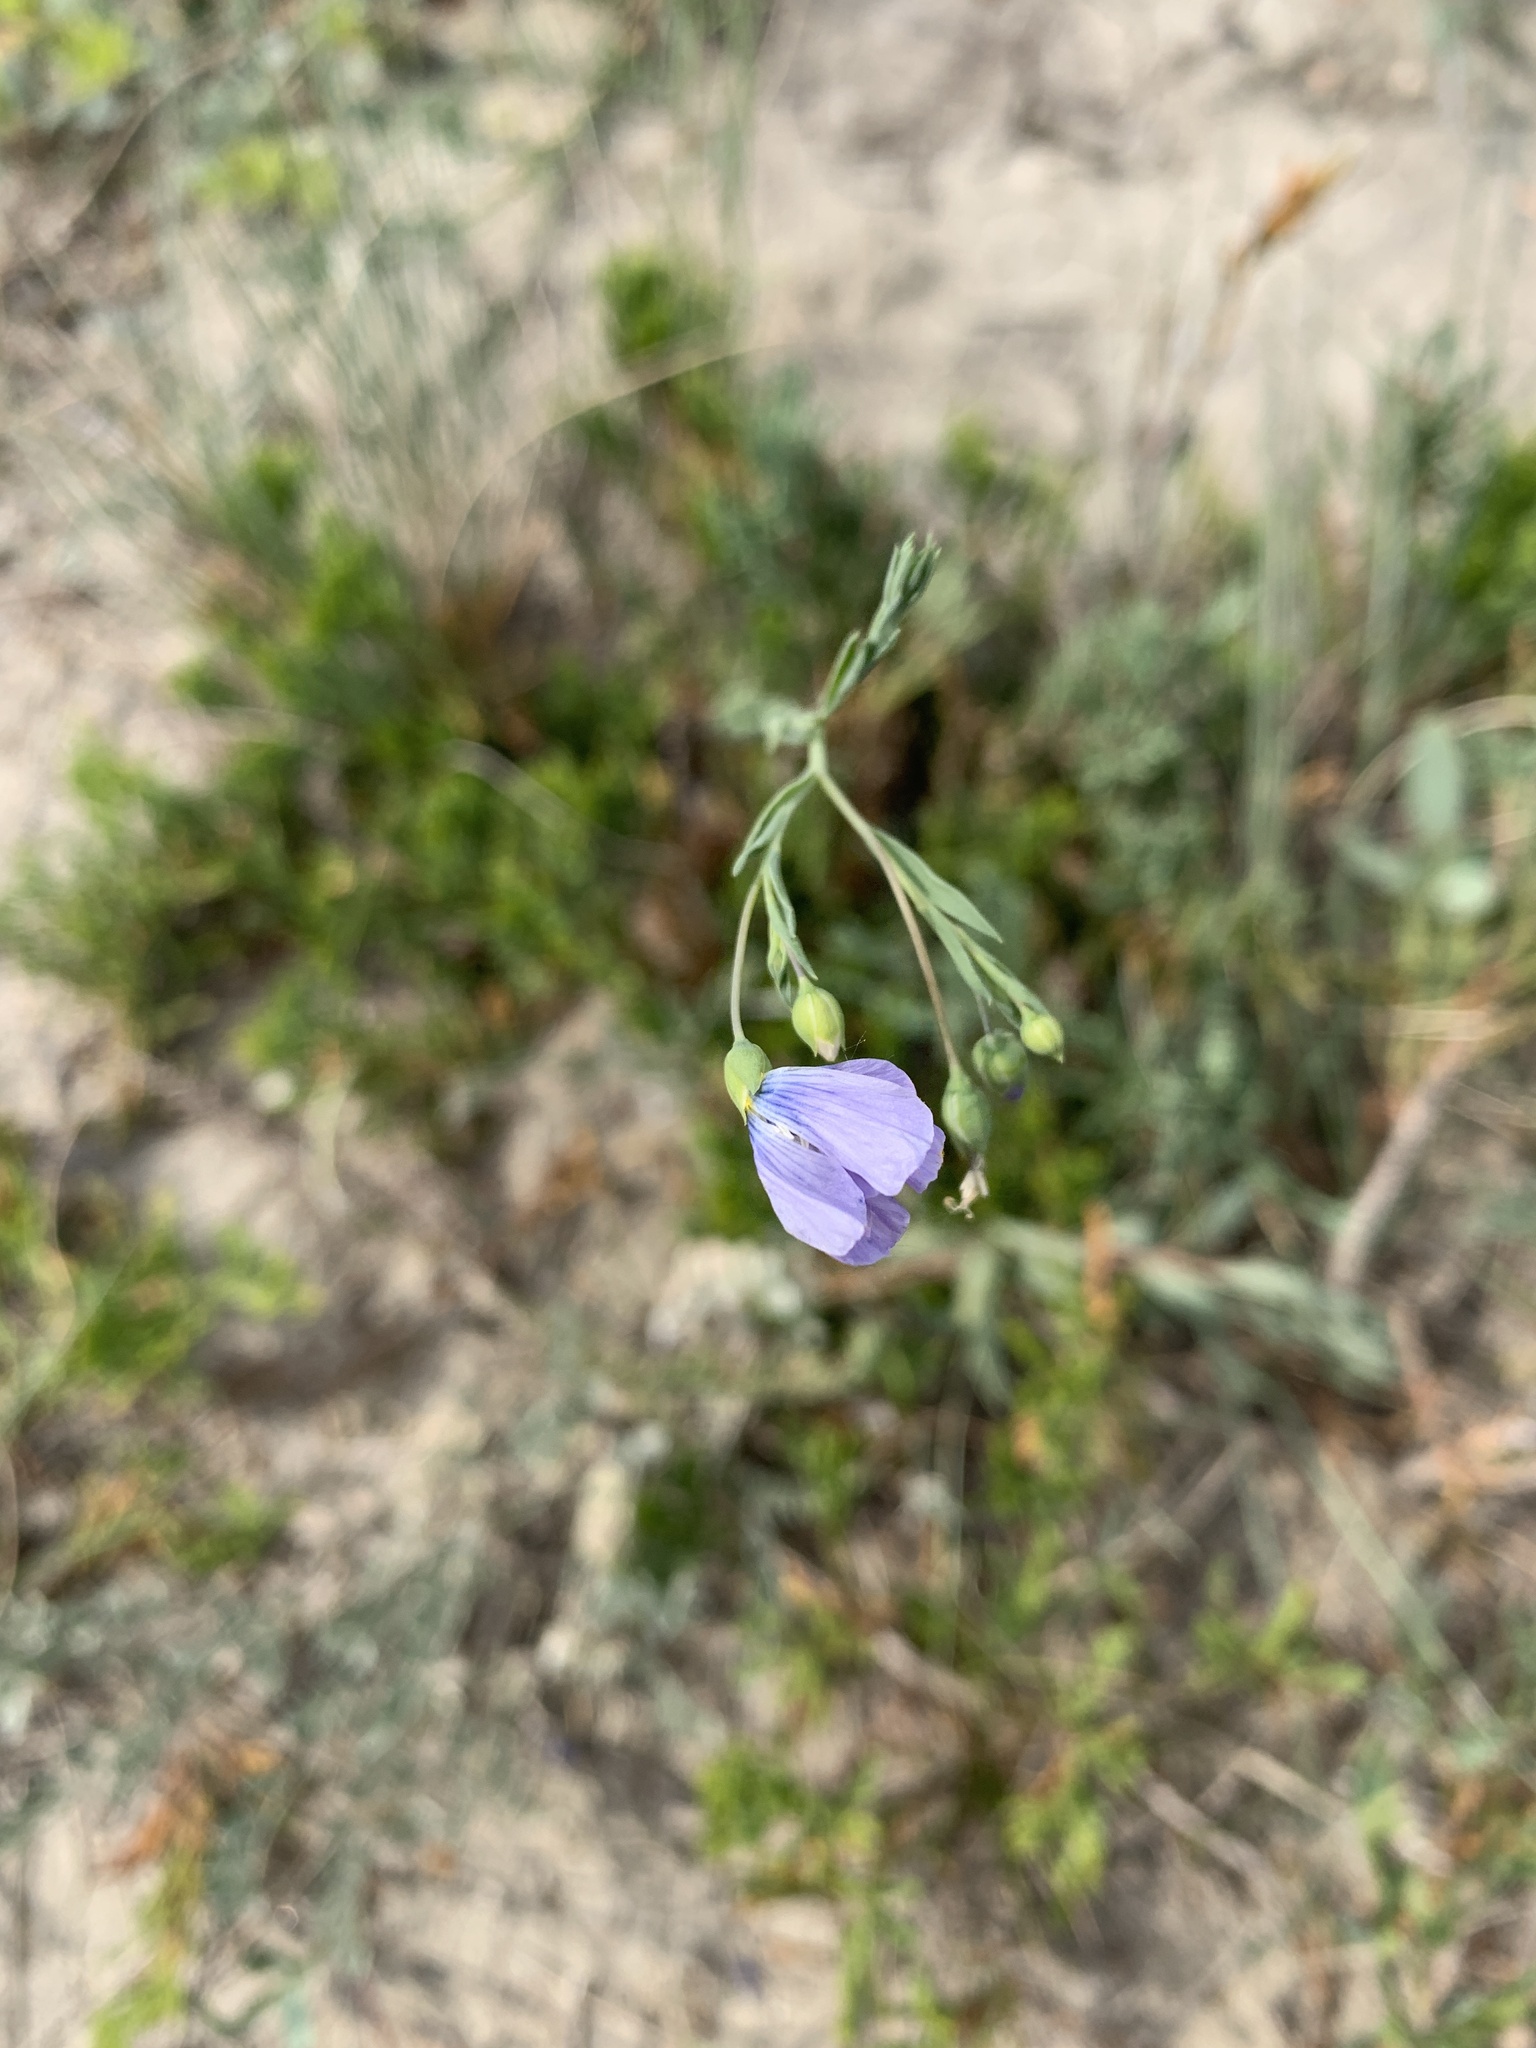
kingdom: Plantae
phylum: Tracheophyta
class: Magnoliopsida
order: Malpighiales
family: Linaceae
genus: Linum
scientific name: Linum lewisii
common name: Prairie flax
